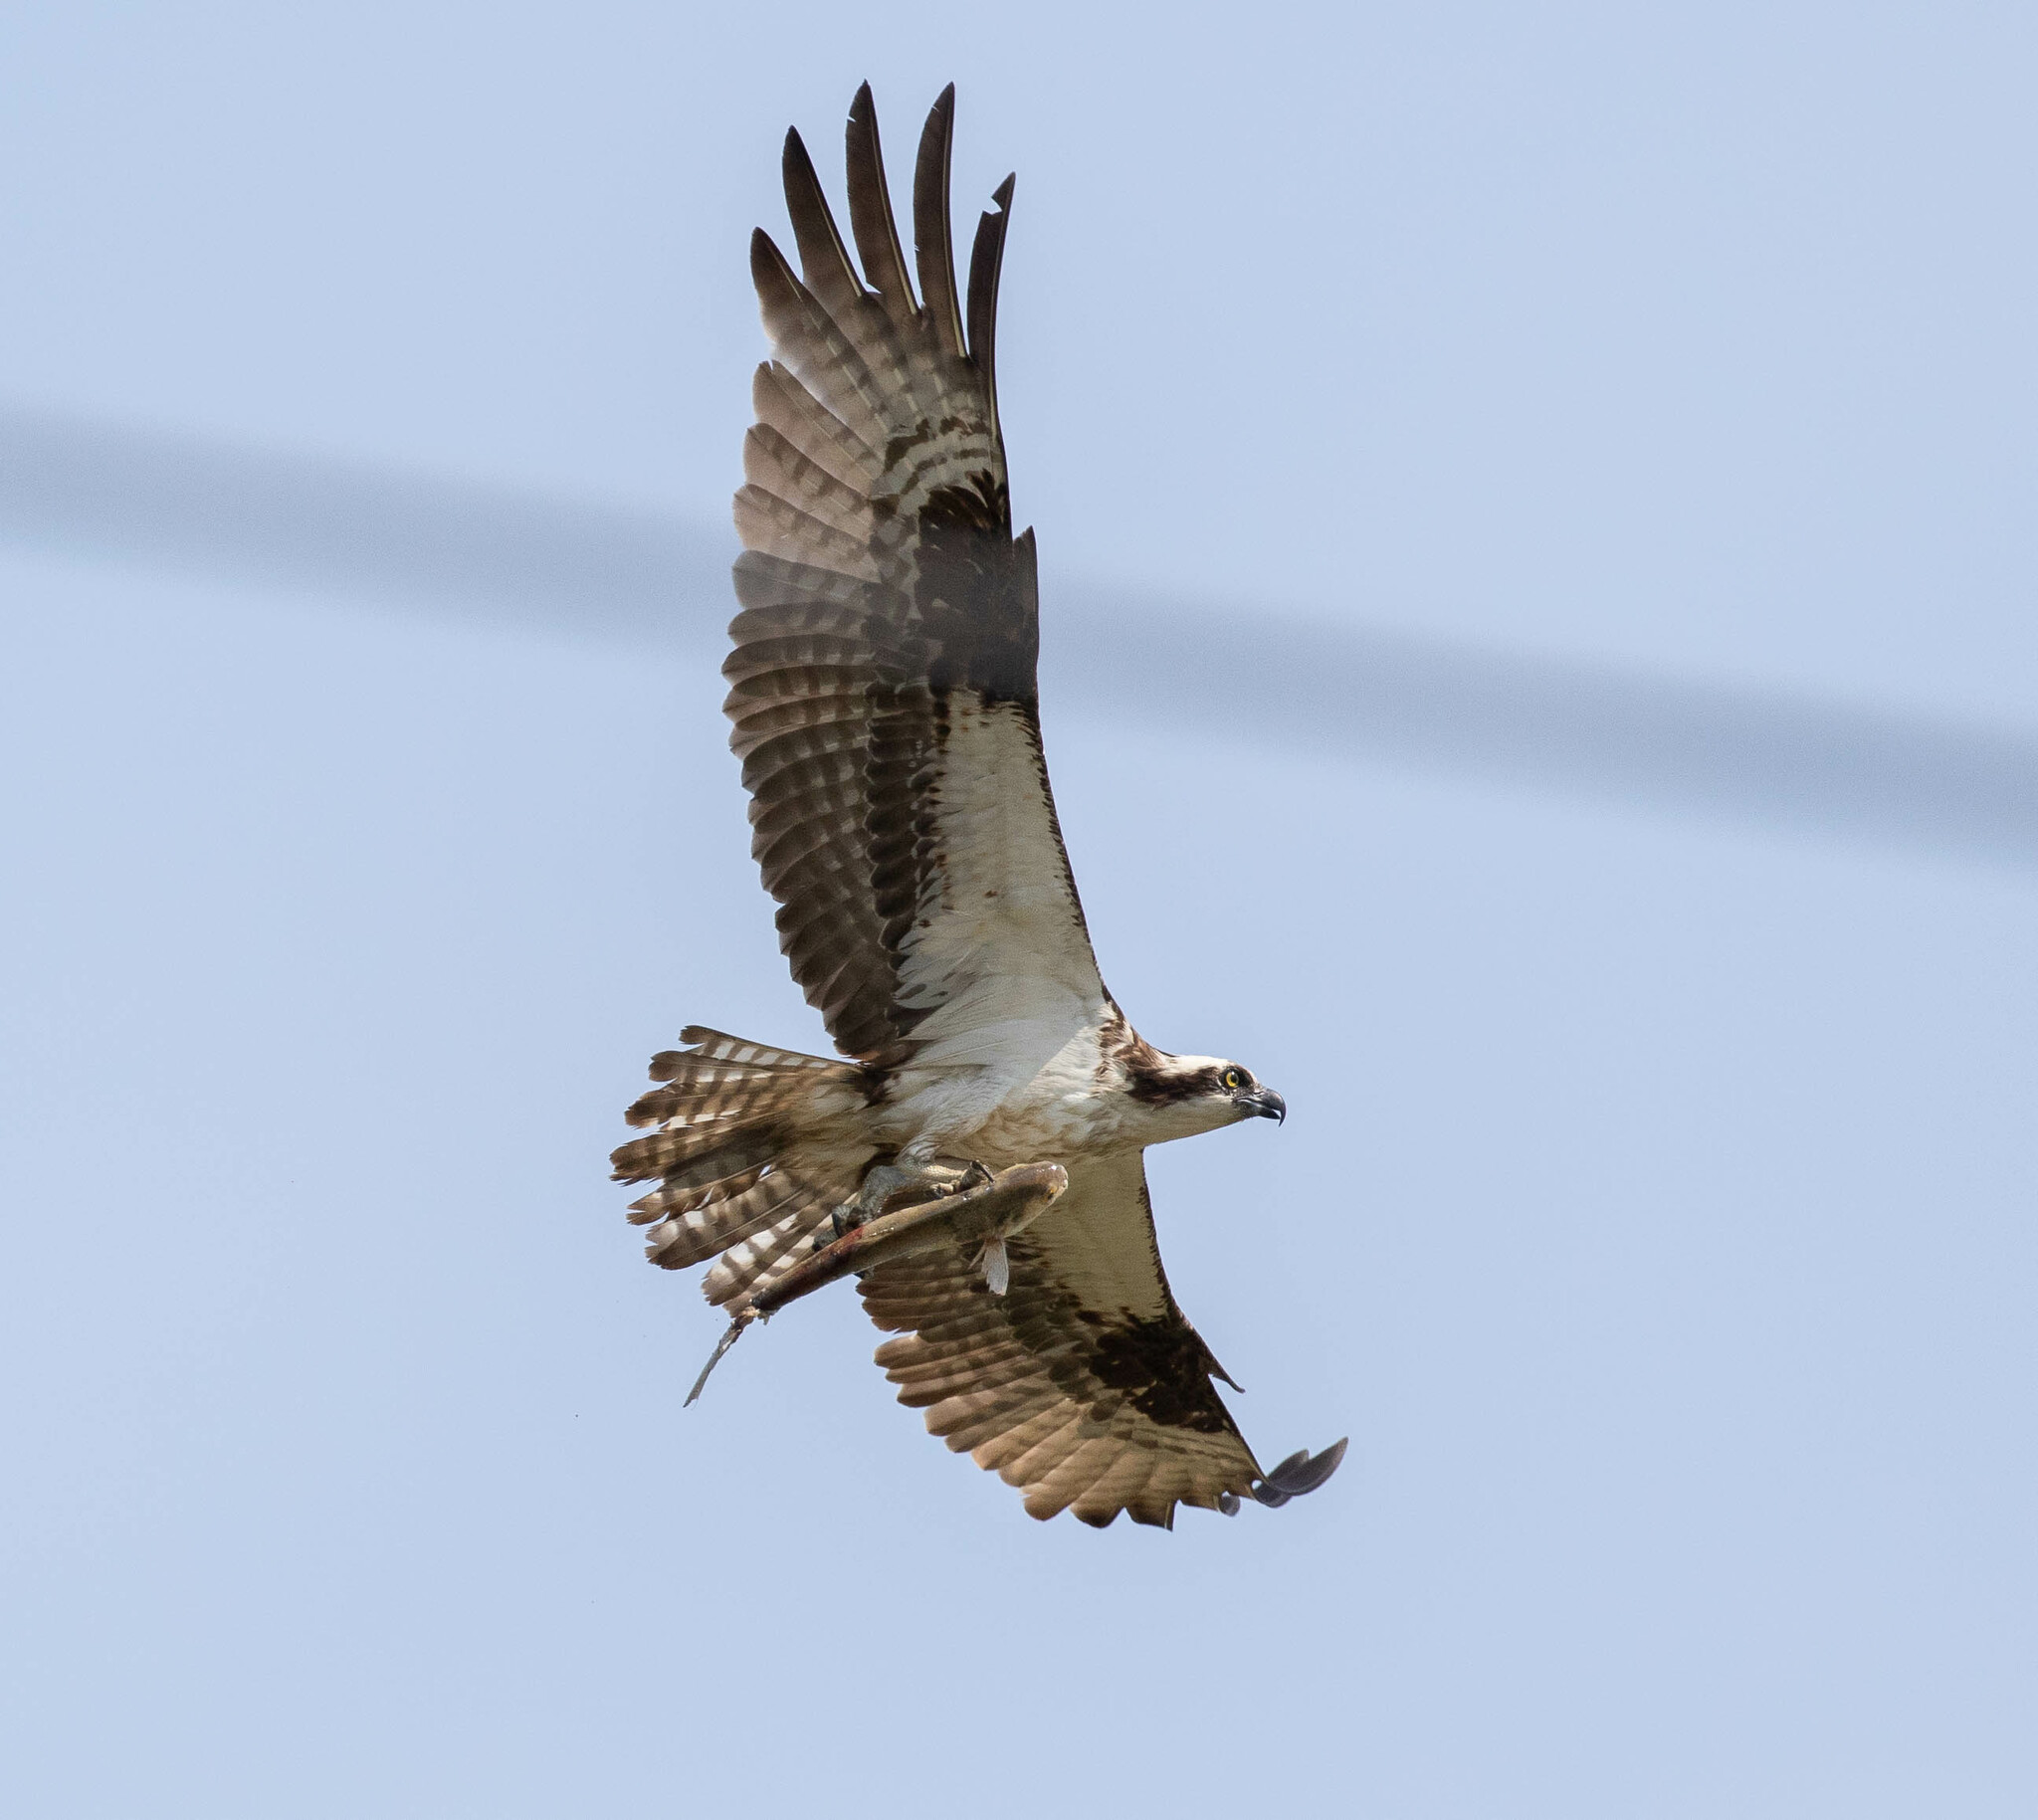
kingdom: Animalia
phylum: Chordata
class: Aves
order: Accipitriformes
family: Pandionidae
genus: Pandion
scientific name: Pandion haliaetus
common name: Osprey
